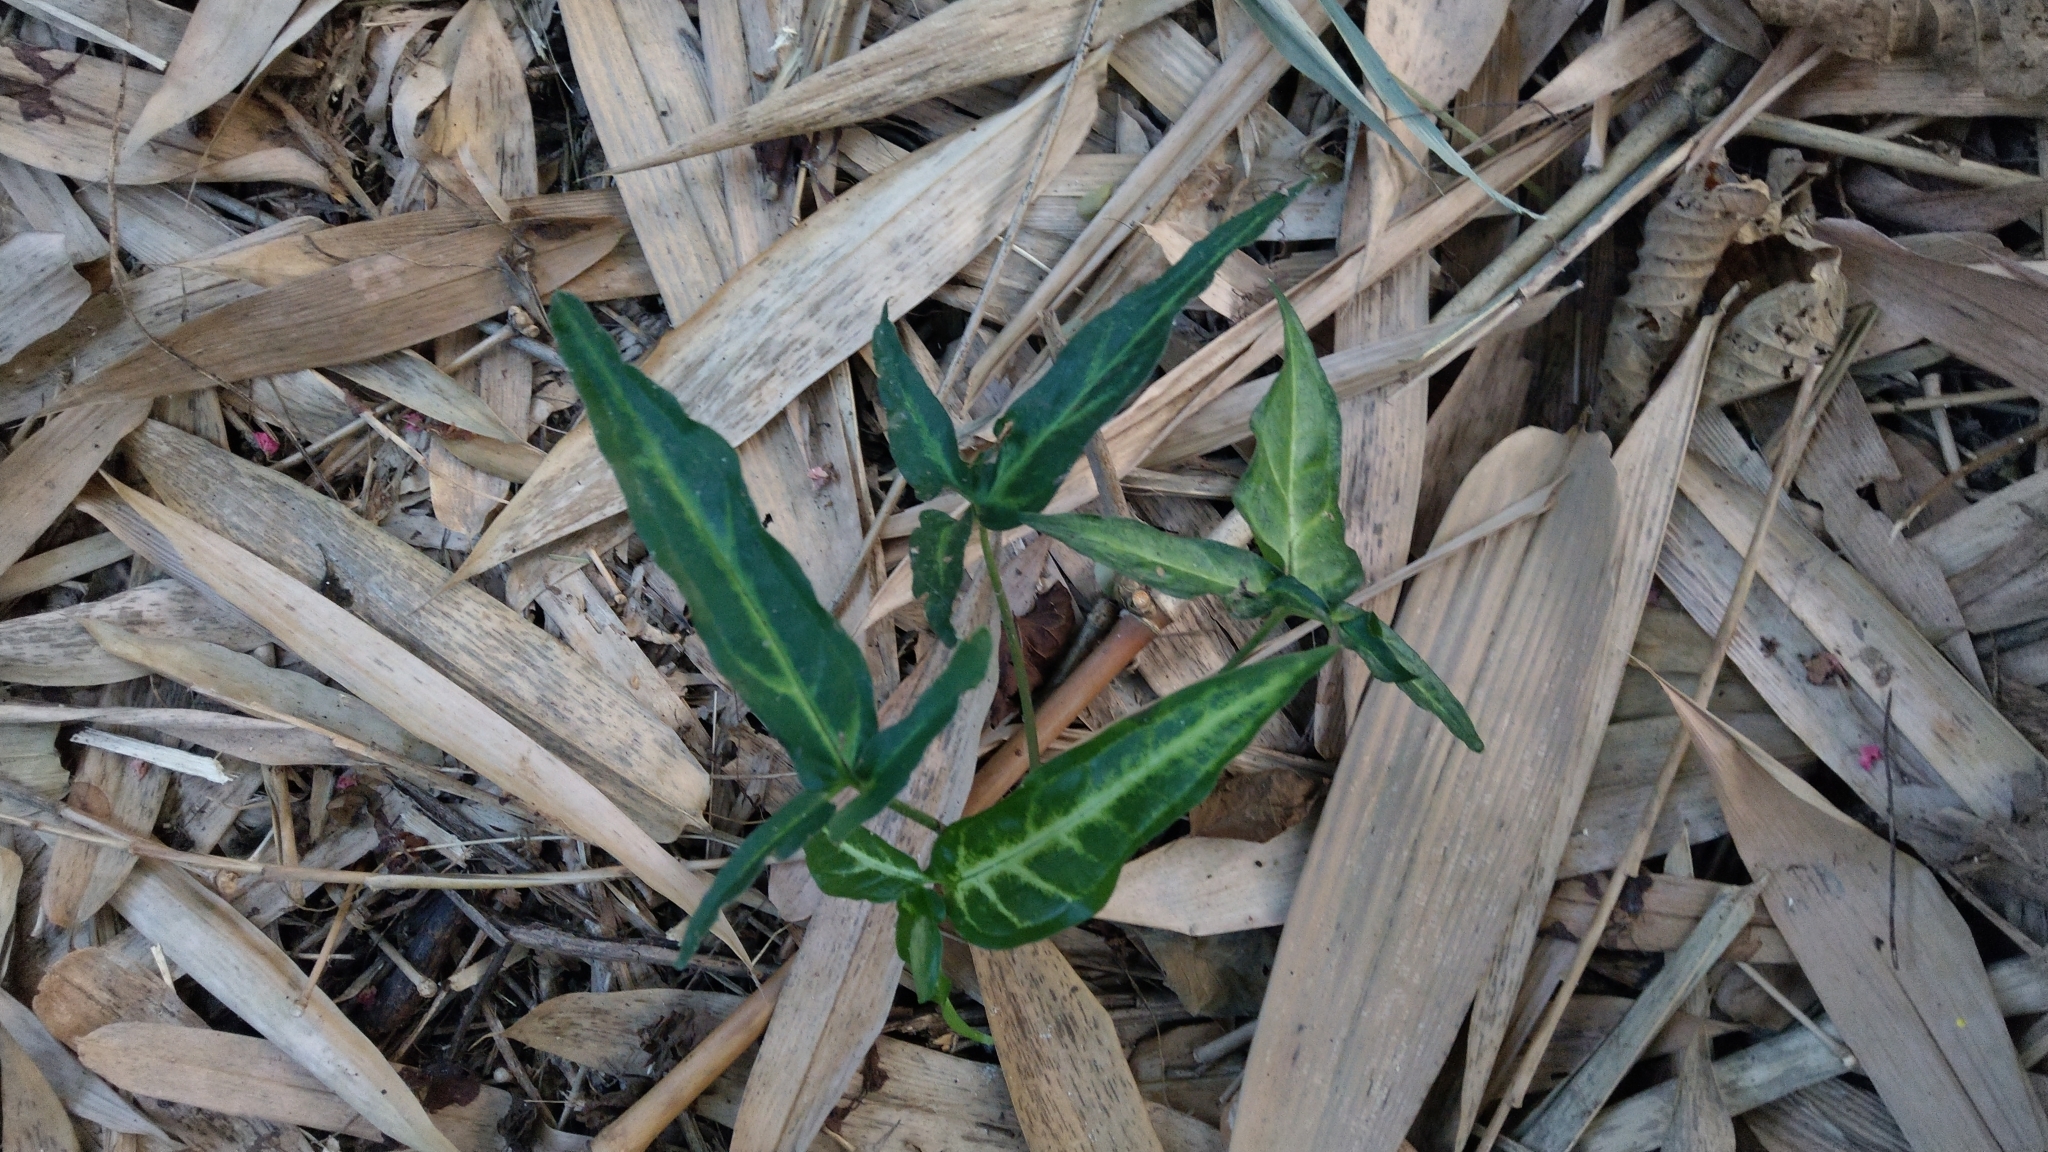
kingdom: Plantae
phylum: Tracheophyta
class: Liliopsida
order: Alismatales
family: Araceae
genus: Syngonium
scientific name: Syngonium podophyllum
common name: American evergreen
